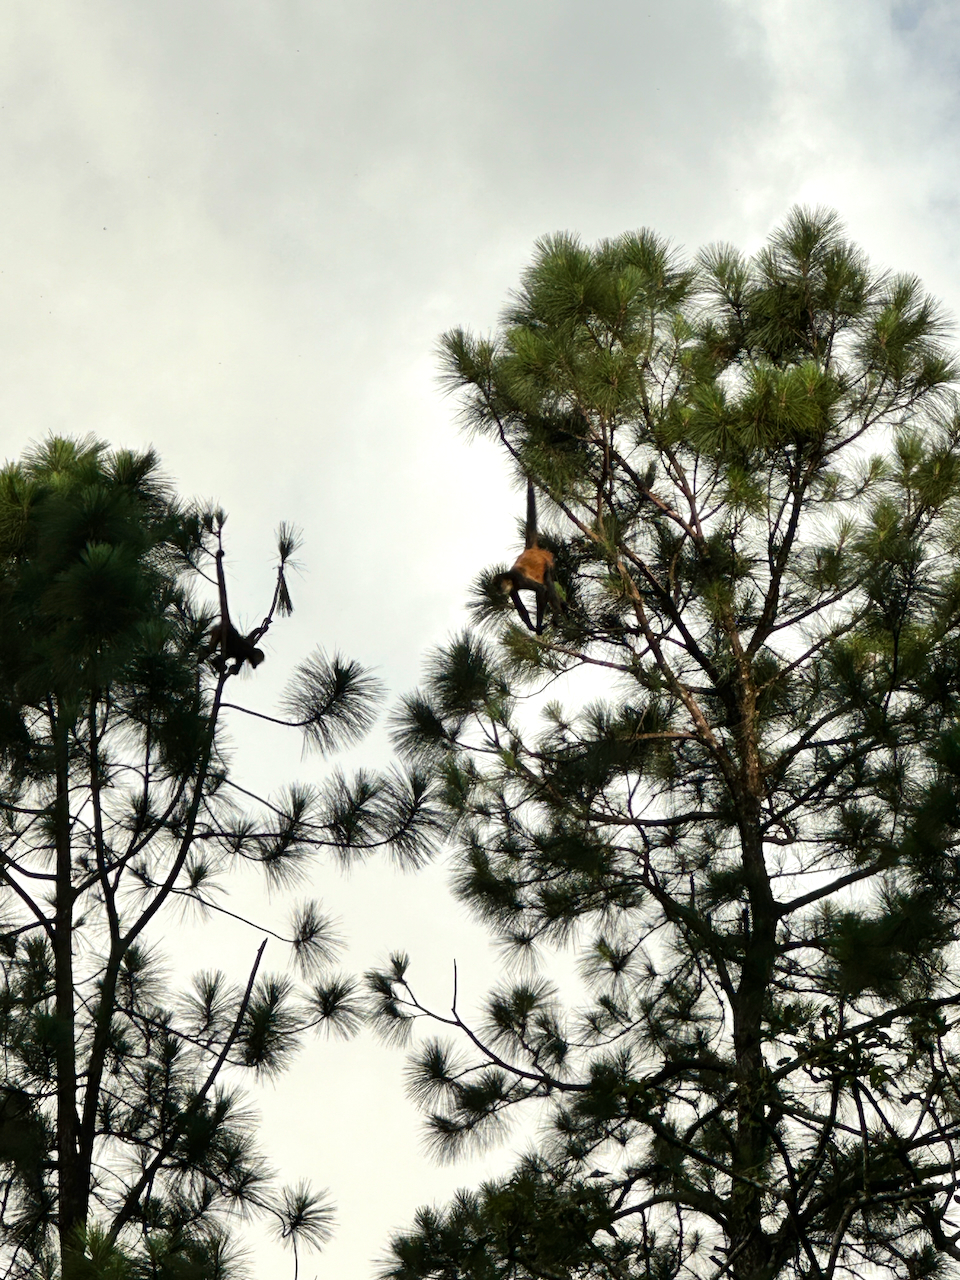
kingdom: Animalia
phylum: Chordata
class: Mammalia
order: Primates
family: Atelidae
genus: Ateles
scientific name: Ateles geoffroyi
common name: Black-handed spider monkey
